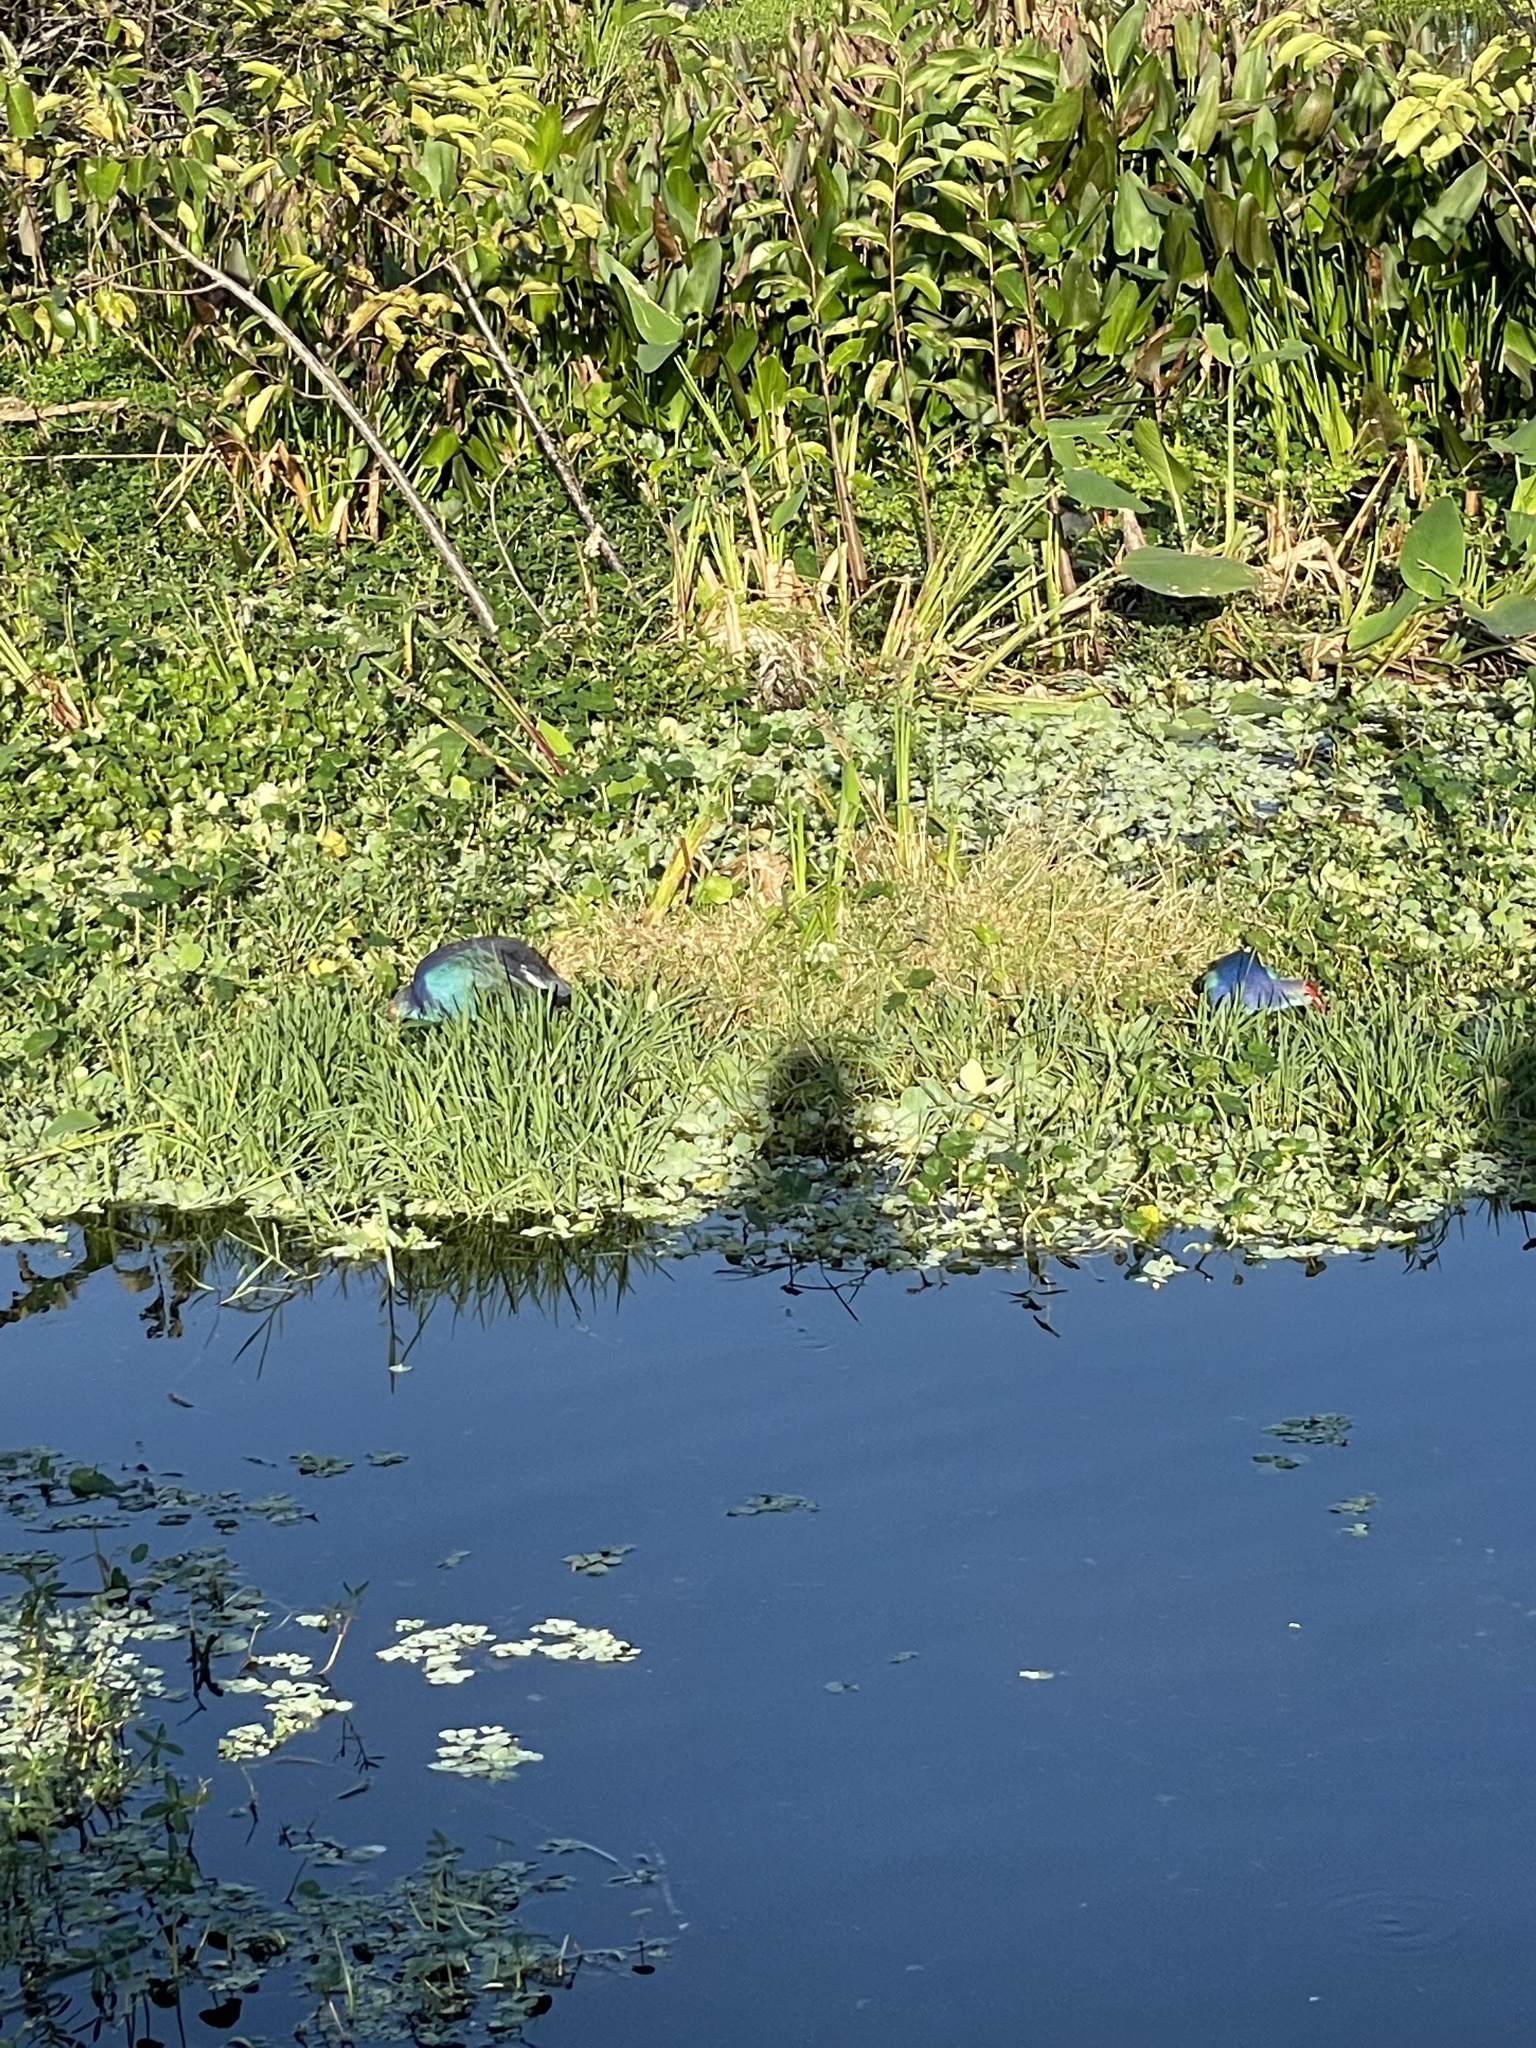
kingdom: Animalia
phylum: Chordata
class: Aves
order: Gruiformes
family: Rallidae
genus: Porphyrio
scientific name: Porphyrio porphyrio
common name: Purple swamphen
